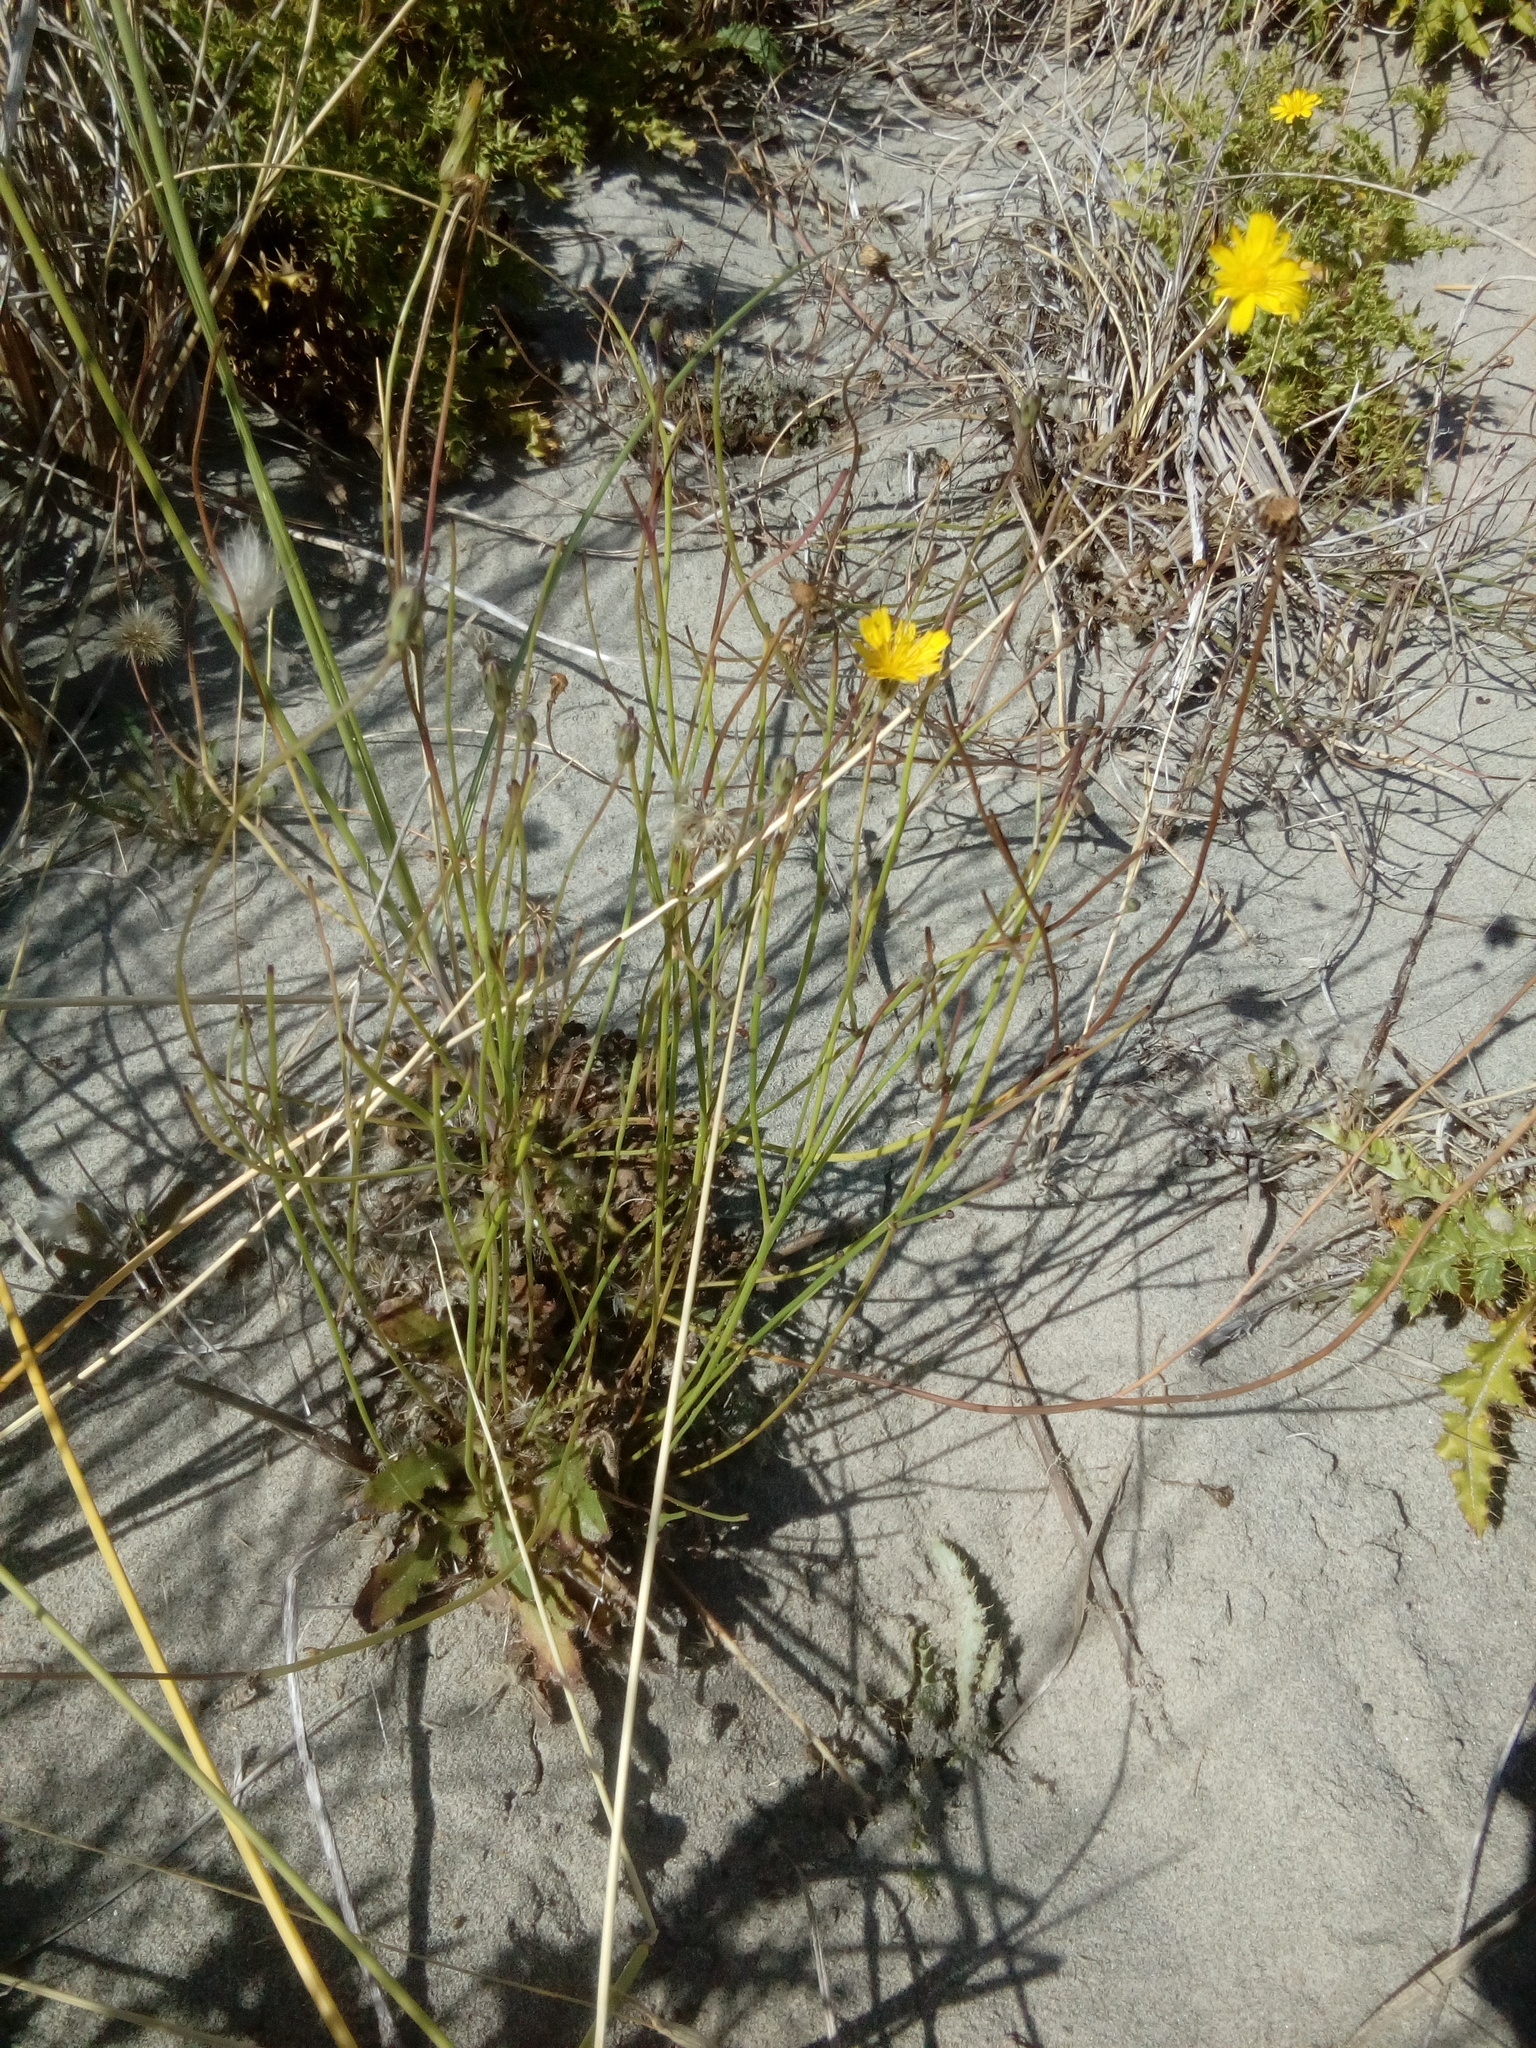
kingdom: Plantae
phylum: Tracheophyta
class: Magnoliopsida
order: Asterales
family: Asteraceae
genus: Hypochaeris
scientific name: Hypochaeris radicata
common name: Flatweed
